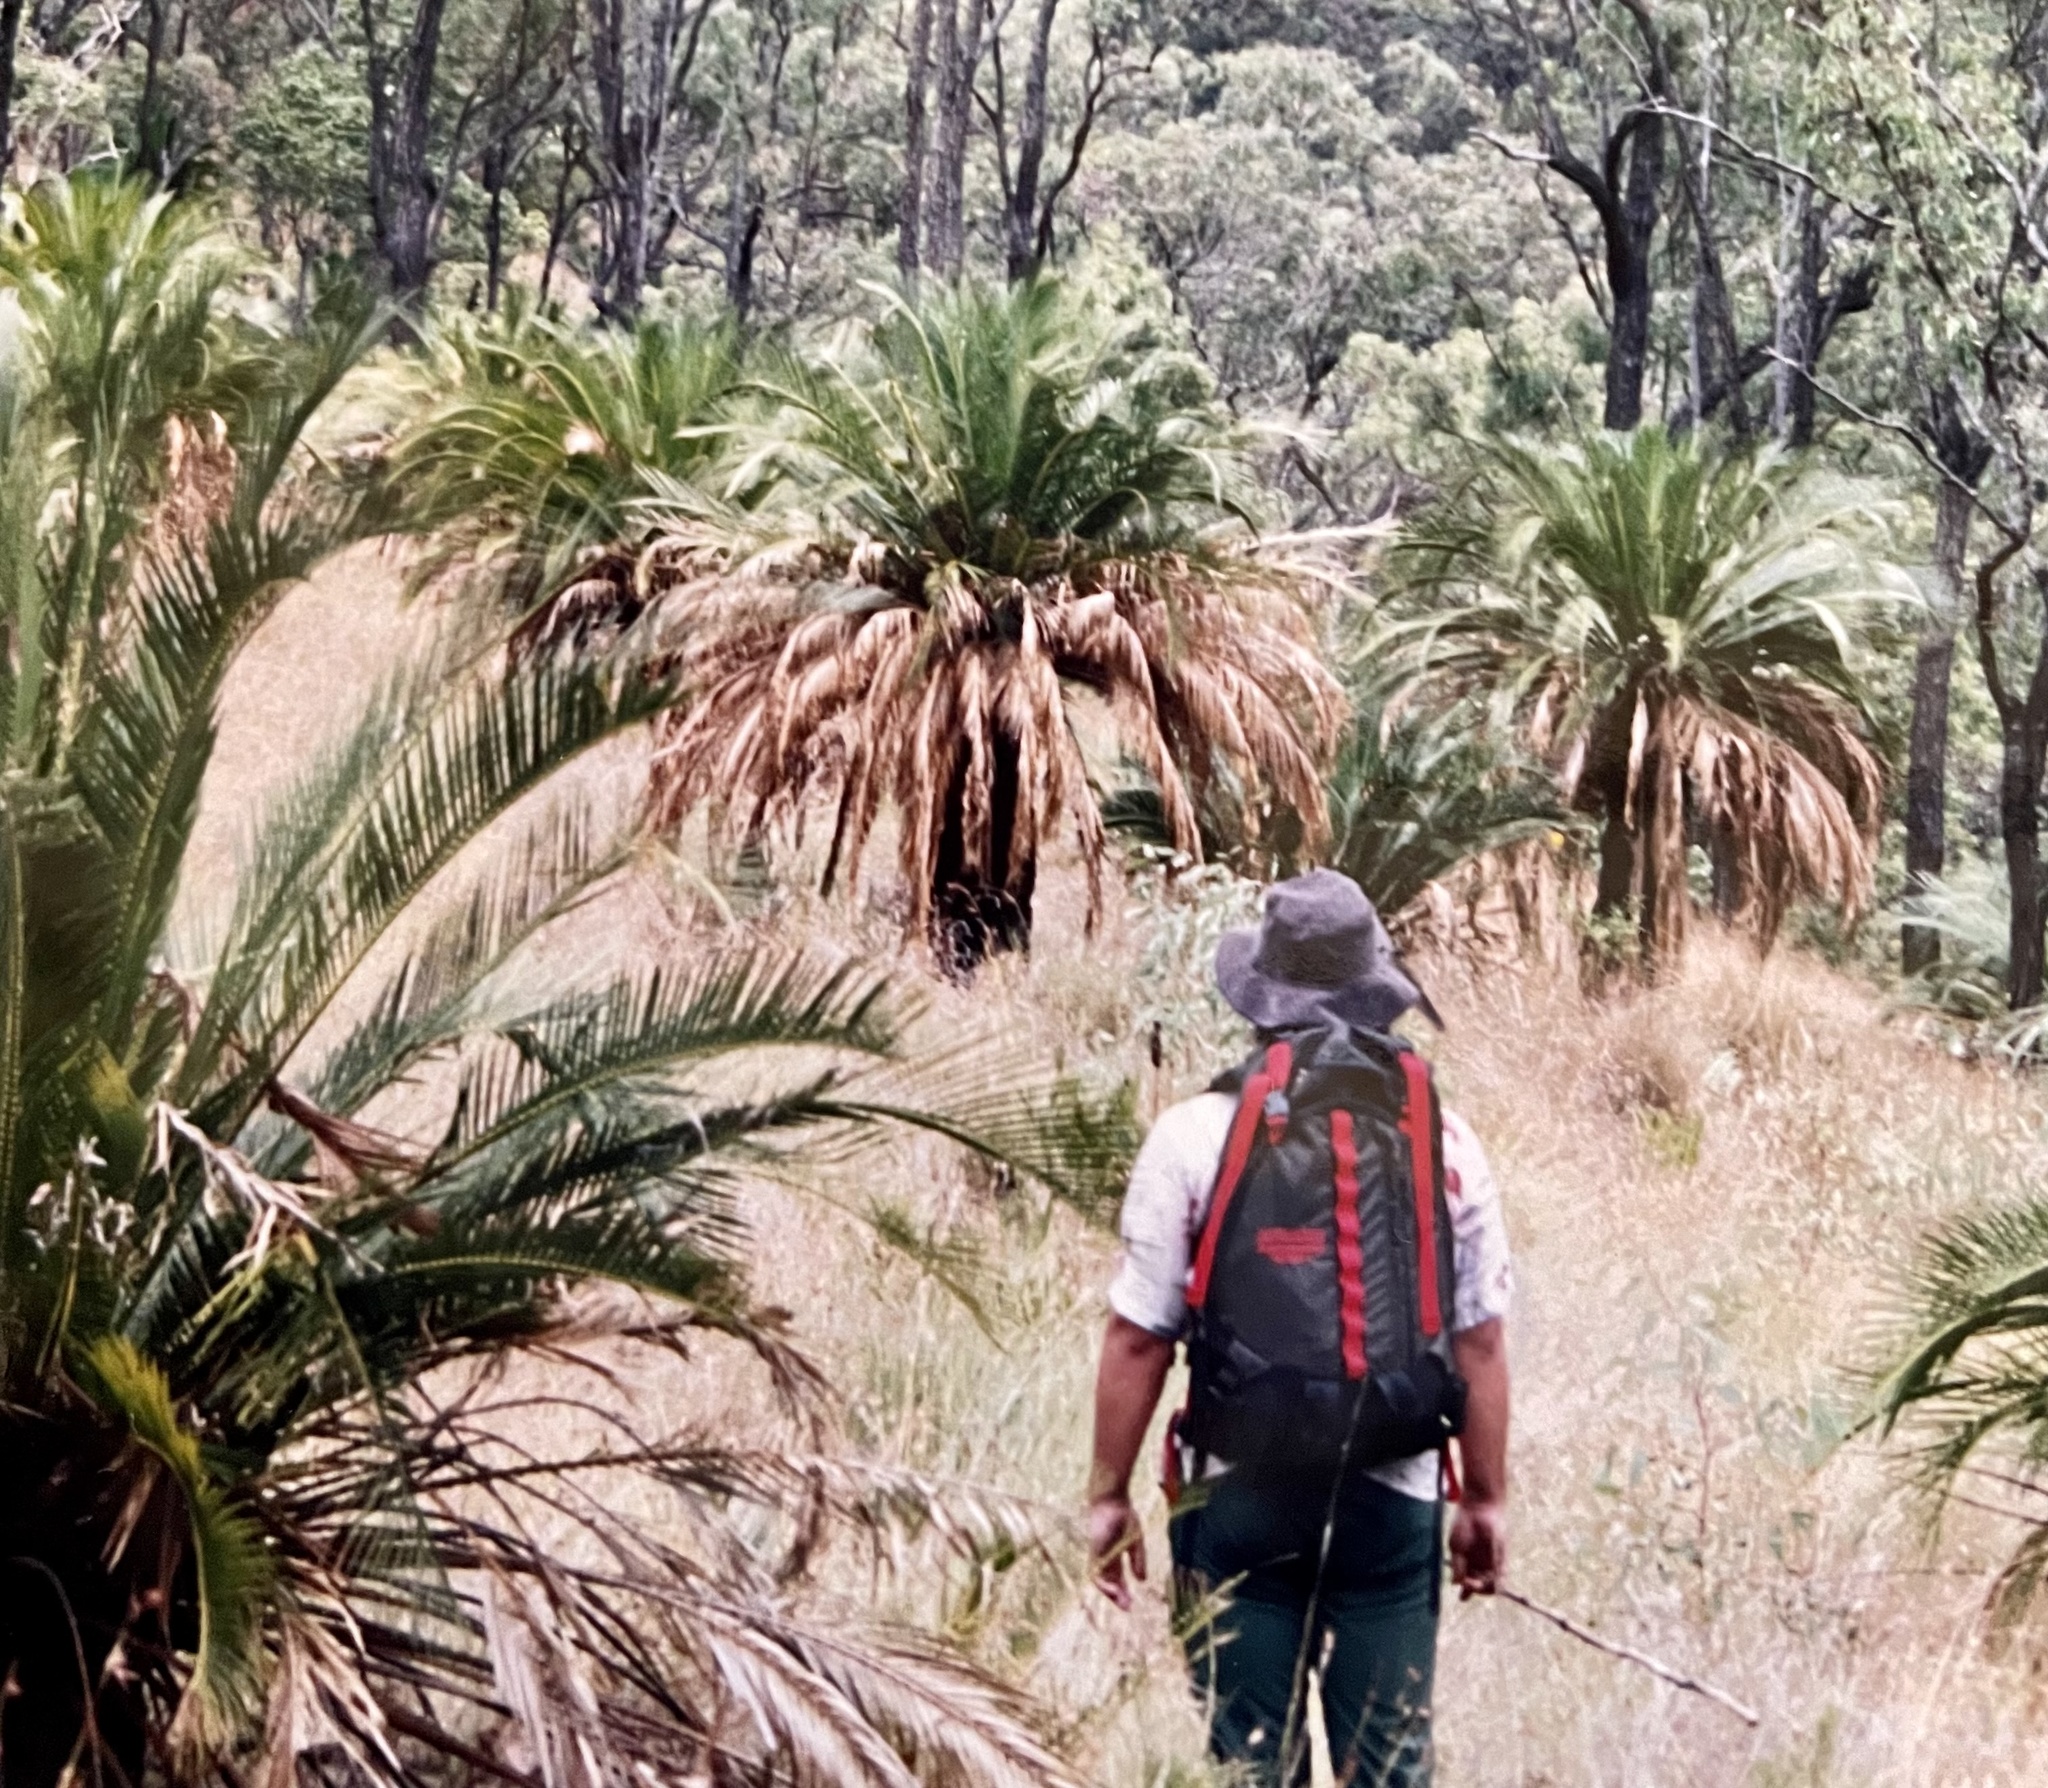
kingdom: Plantae
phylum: Tracheophyta
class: Cycadopsida
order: Cycadales
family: Zamiaceae
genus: Macrozamia
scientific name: Macrozamia moorei
